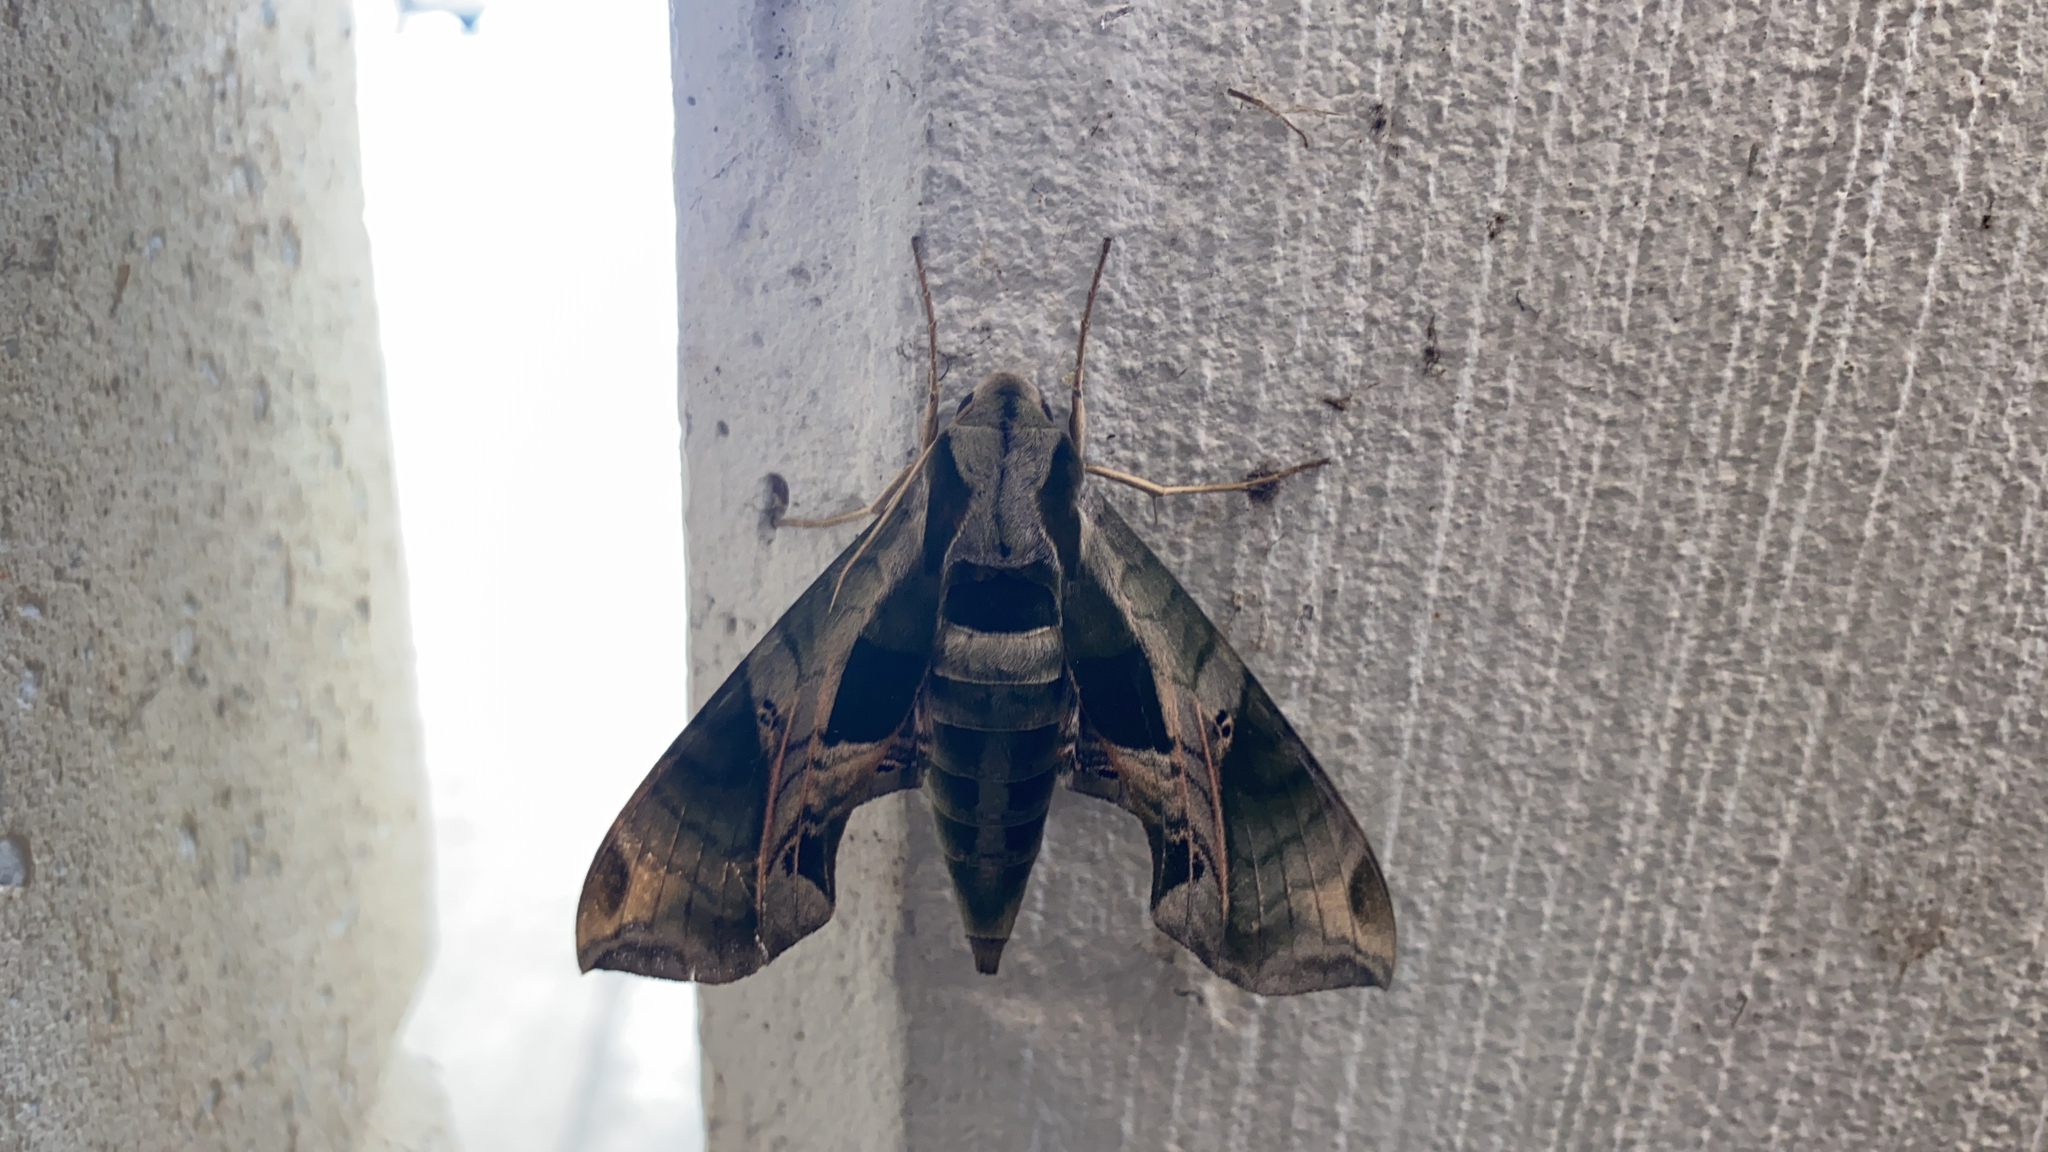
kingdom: Animalia
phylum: Arthropoda
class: Insecta
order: Lepidoptera
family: Sphingidae
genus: Eumorpha
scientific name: Eumorpha pandorus
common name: Pandora sphinx
